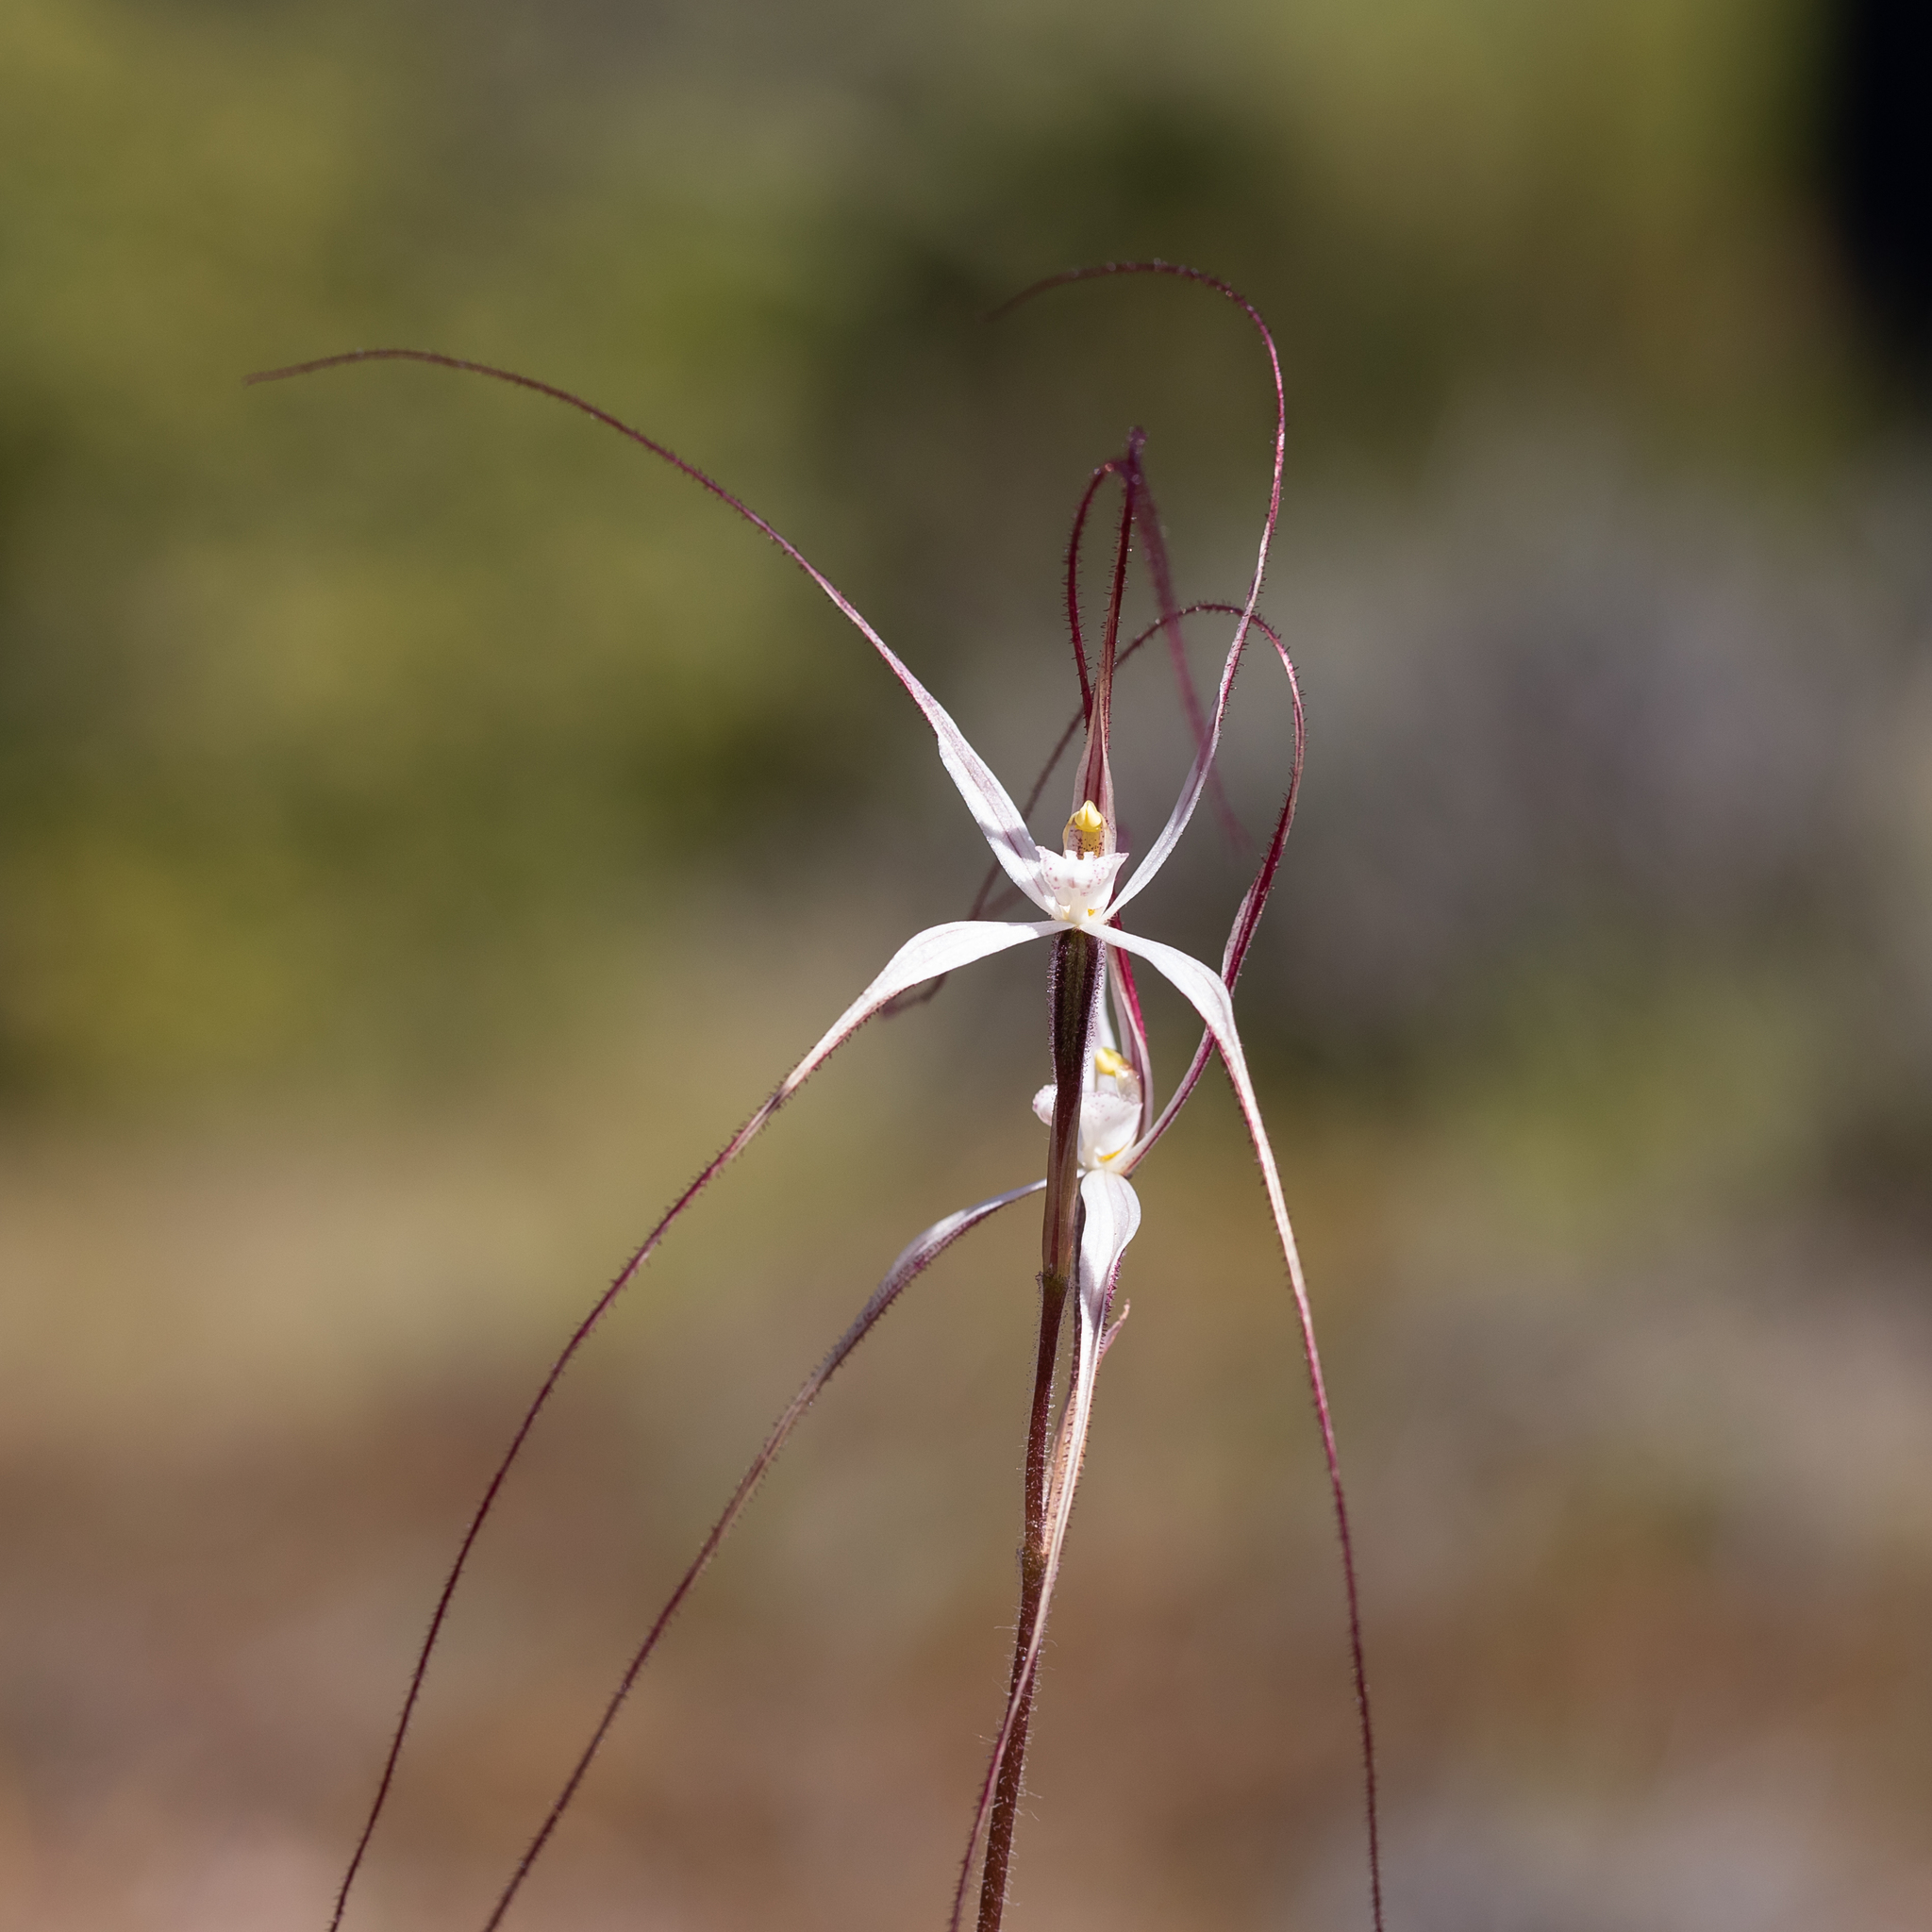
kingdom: Plantae
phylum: Tracheophyta
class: Liliopsida
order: Asparagales
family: Orchidaceae
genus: Caladenia
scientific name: Caladenia capillata
